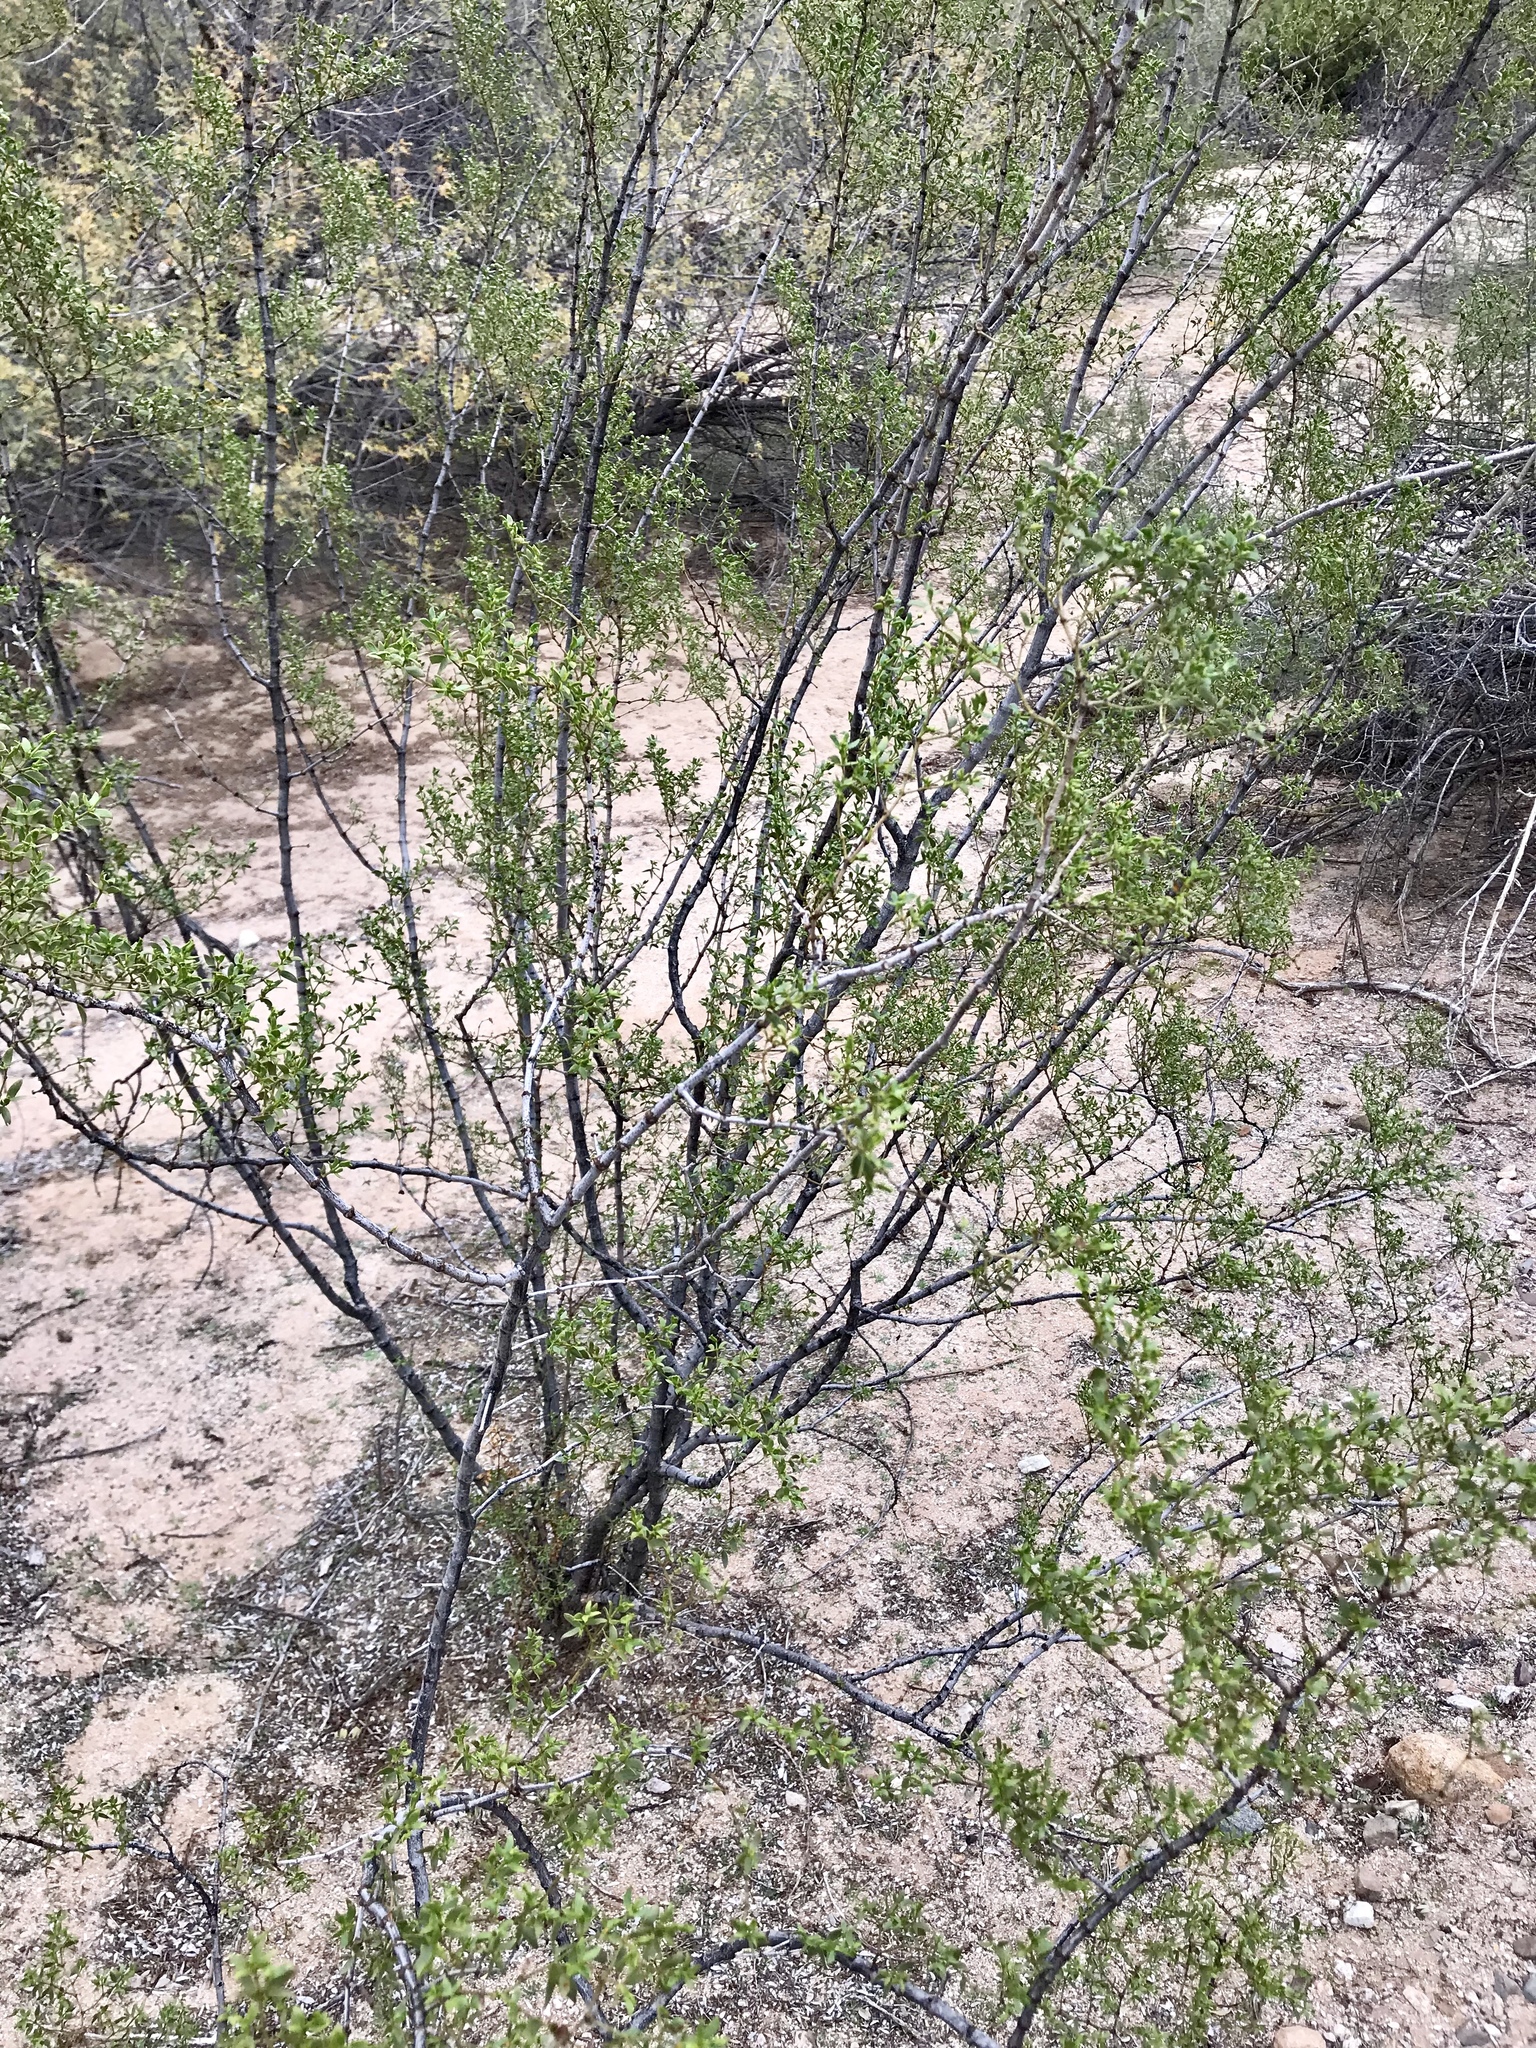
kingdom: Plantae
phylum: Tracheophyta
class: Magnoliopsida
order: Zygophyllales
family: Zygophyllaceae
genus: Larrea
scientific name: Larrea tridentata
